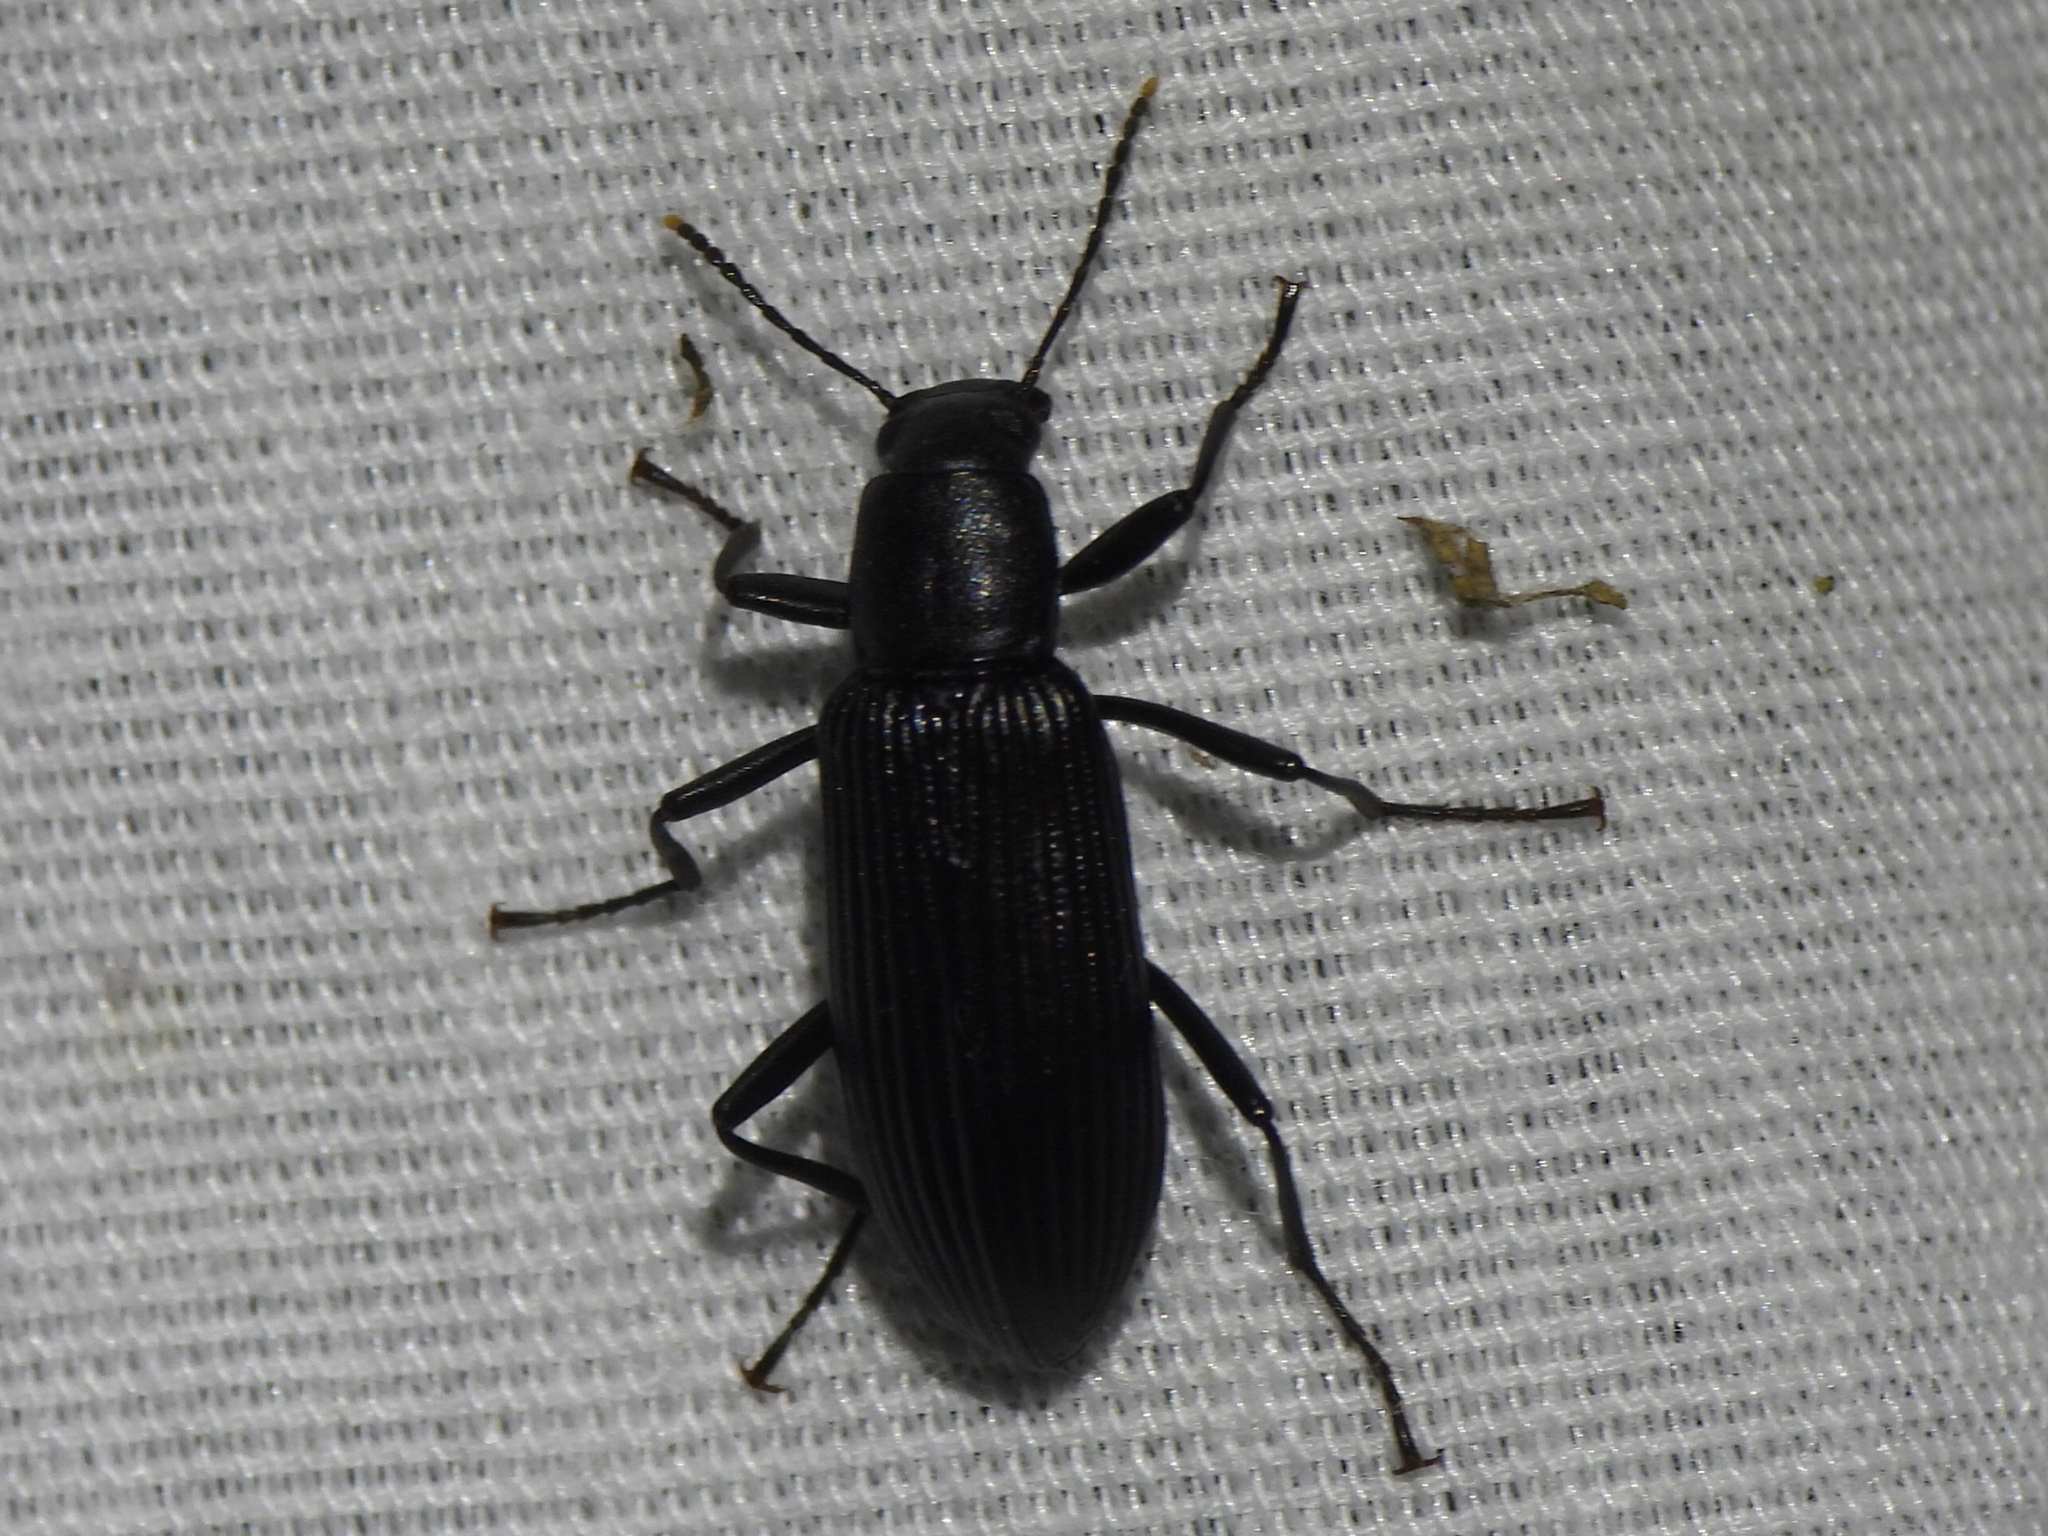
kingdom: Animalia
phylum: Arthropoda
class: Insecta
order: Coleoptera
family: Tenebrionidae
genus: Strongylium
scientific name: Strongylium tenuicolle
